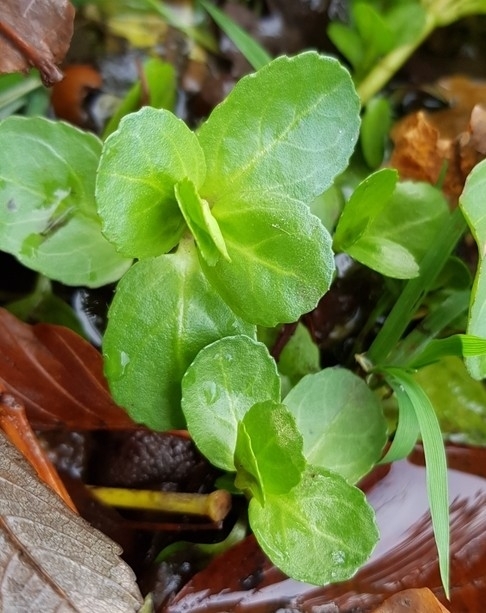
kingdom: Plantae
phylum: Tracheophyta
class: Magnoliopsida
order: Lamiales
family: Plantaginaceae
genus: Veronica
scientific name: Veronica beccabunga
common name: Brooklime
